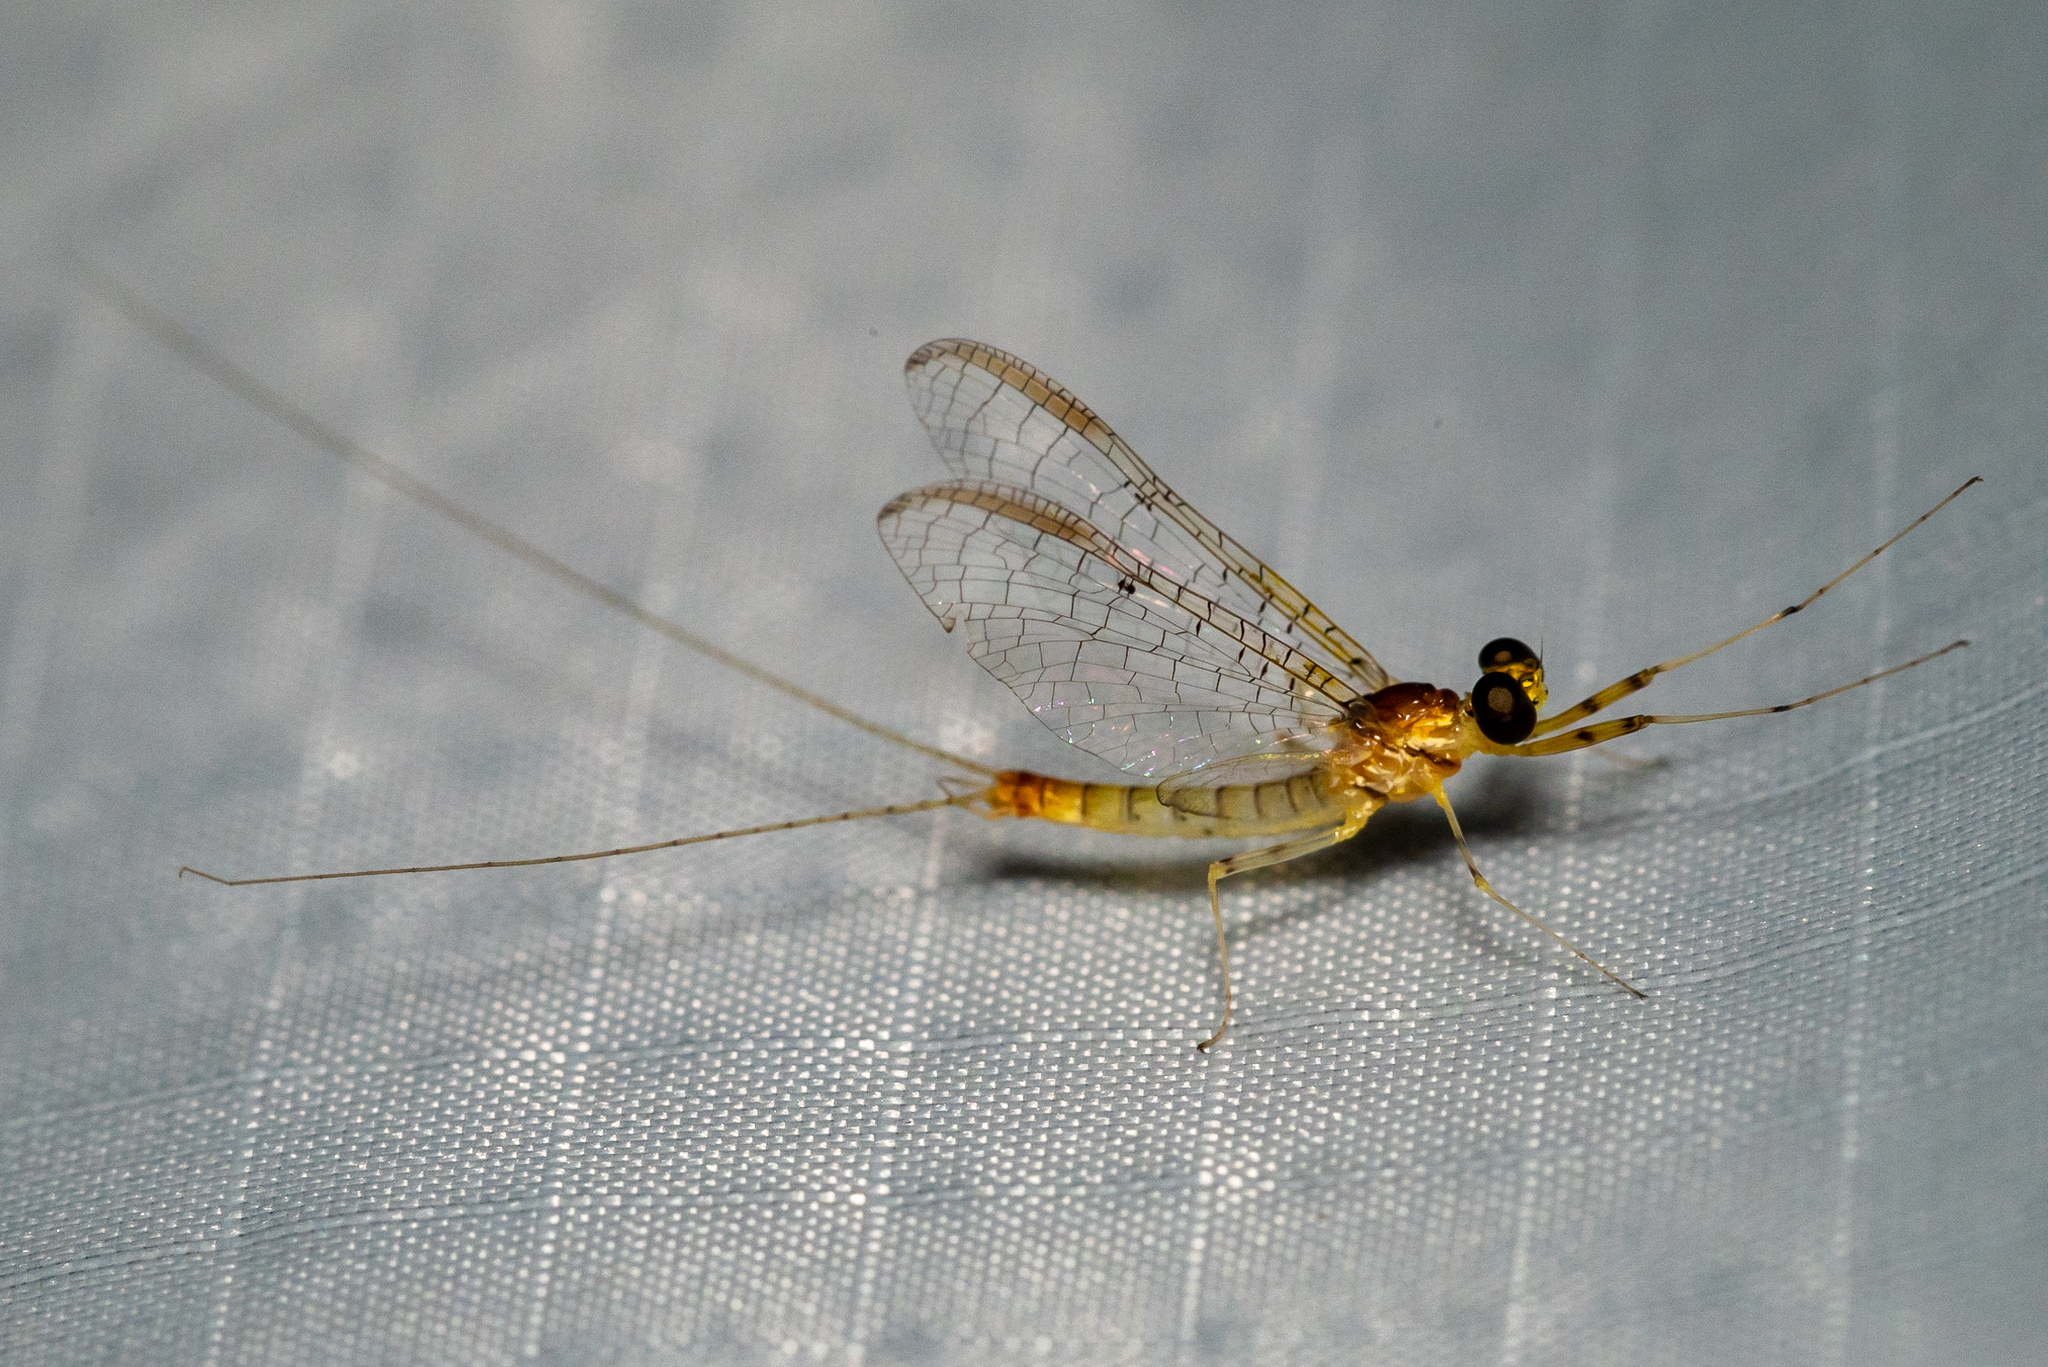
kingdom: Animalia
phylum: Arthropoda
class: Insecta
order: Ephemeroptera
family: Heptageniidae
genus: Stenacron
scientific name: Stenacron interpunctatum
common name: Orange cahill
